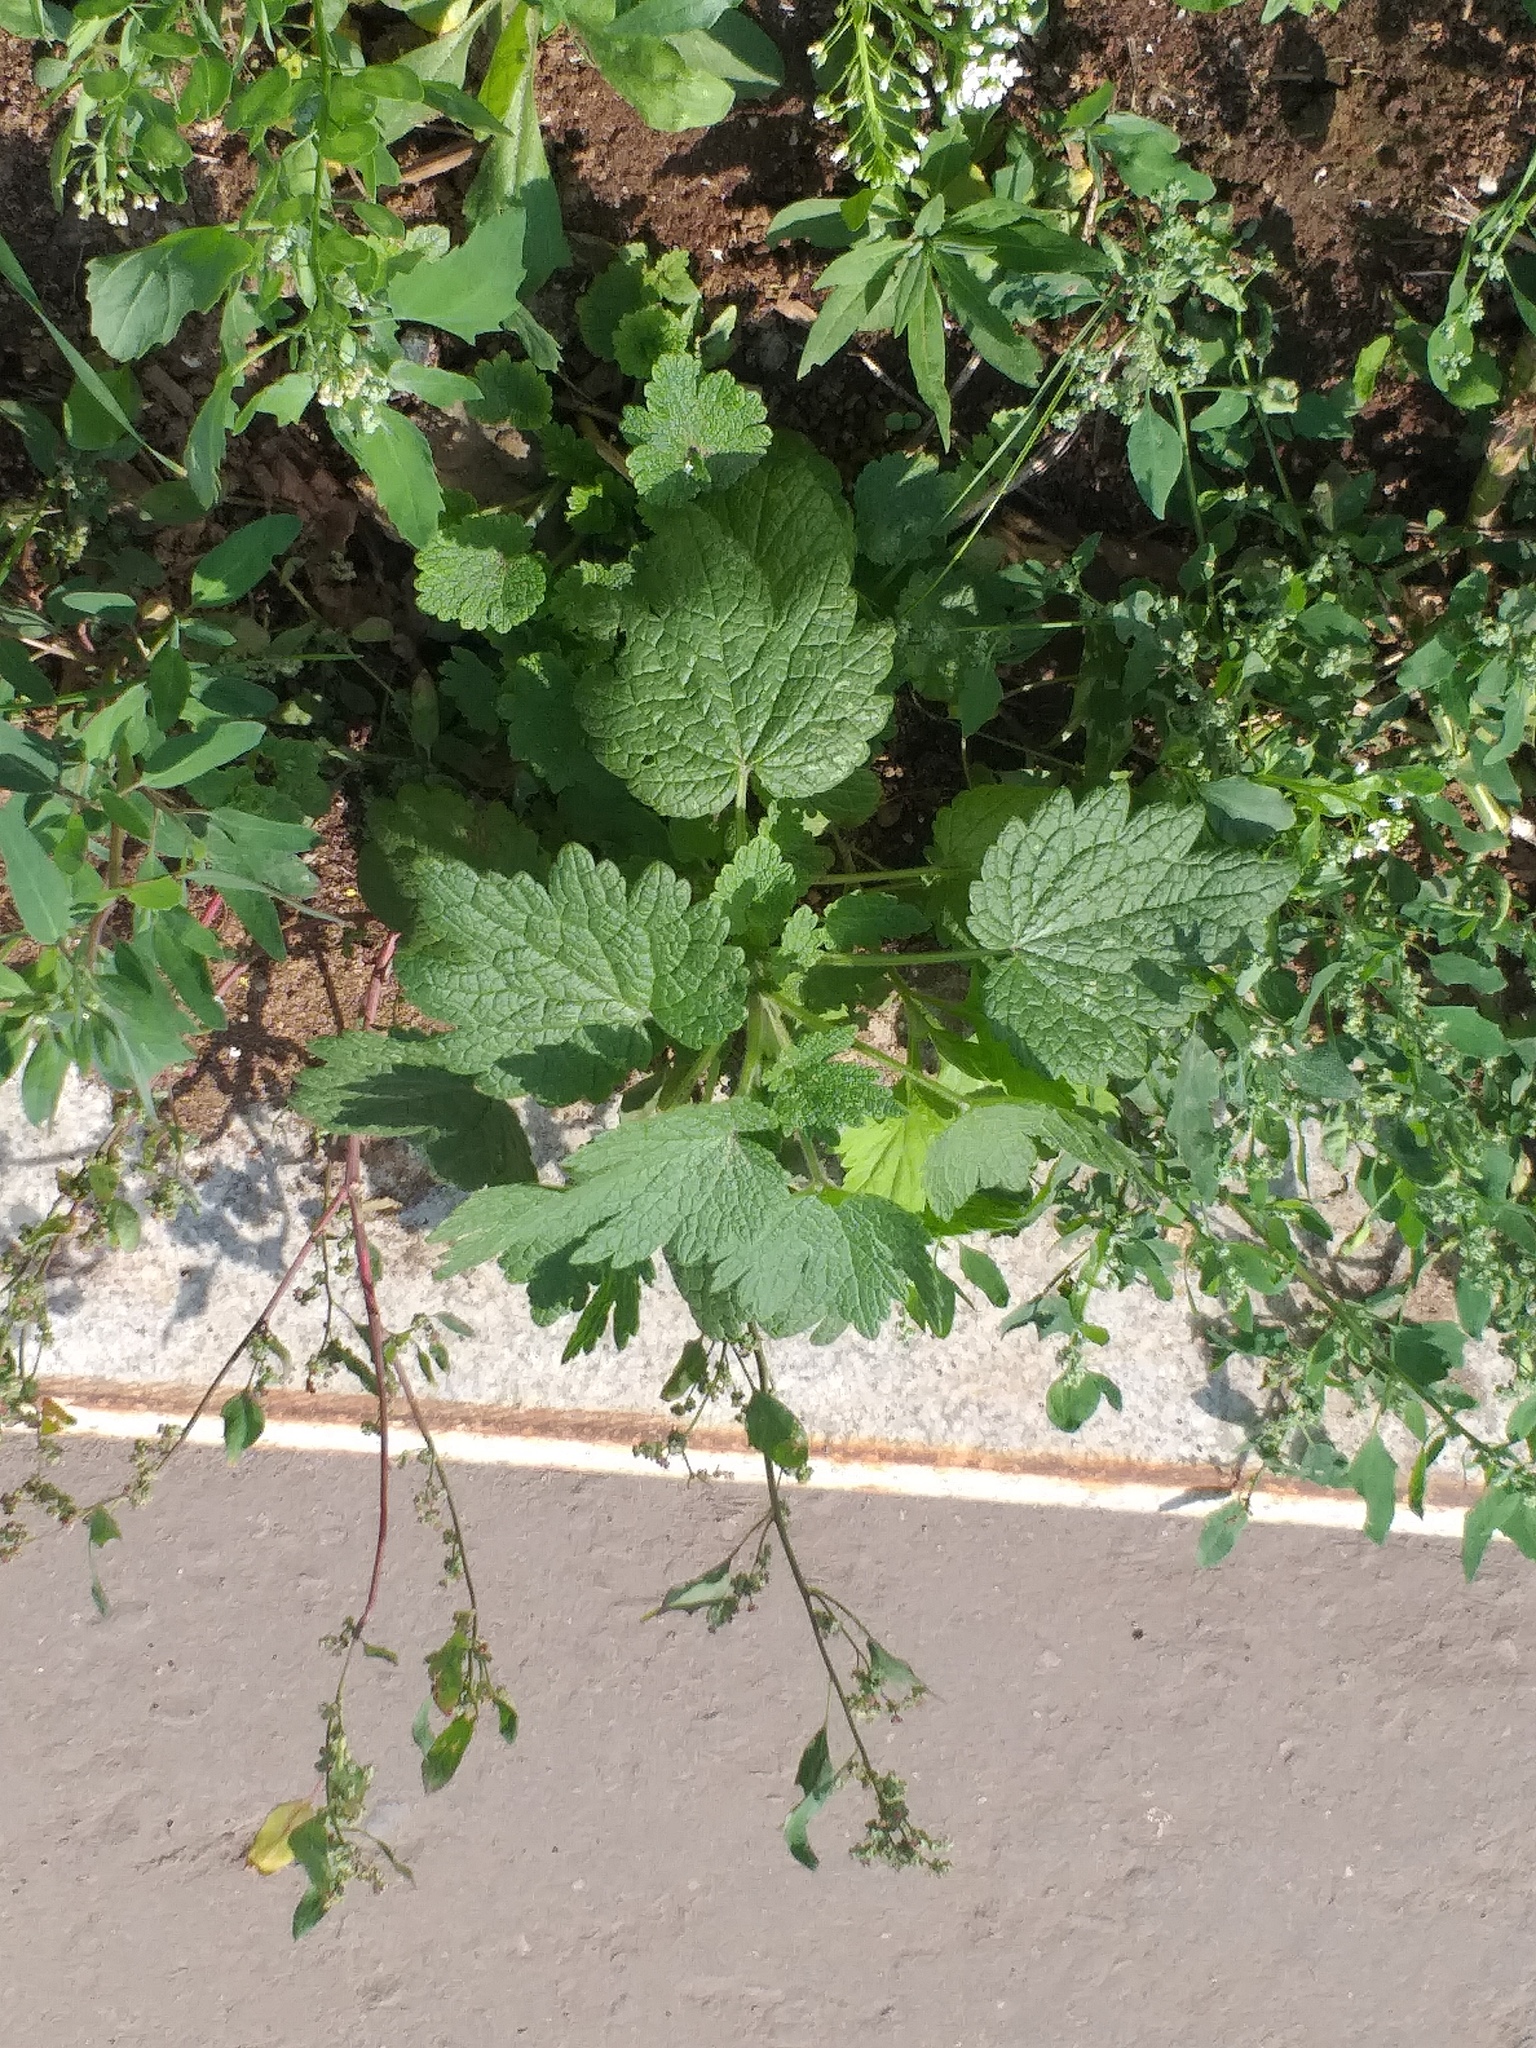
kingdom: Plantae
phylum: Tracheophyta
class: Magnoliopsida
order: Lamiales
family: Lamiaceae
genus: Leonurus
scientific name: Leonurus quinquelobatus
